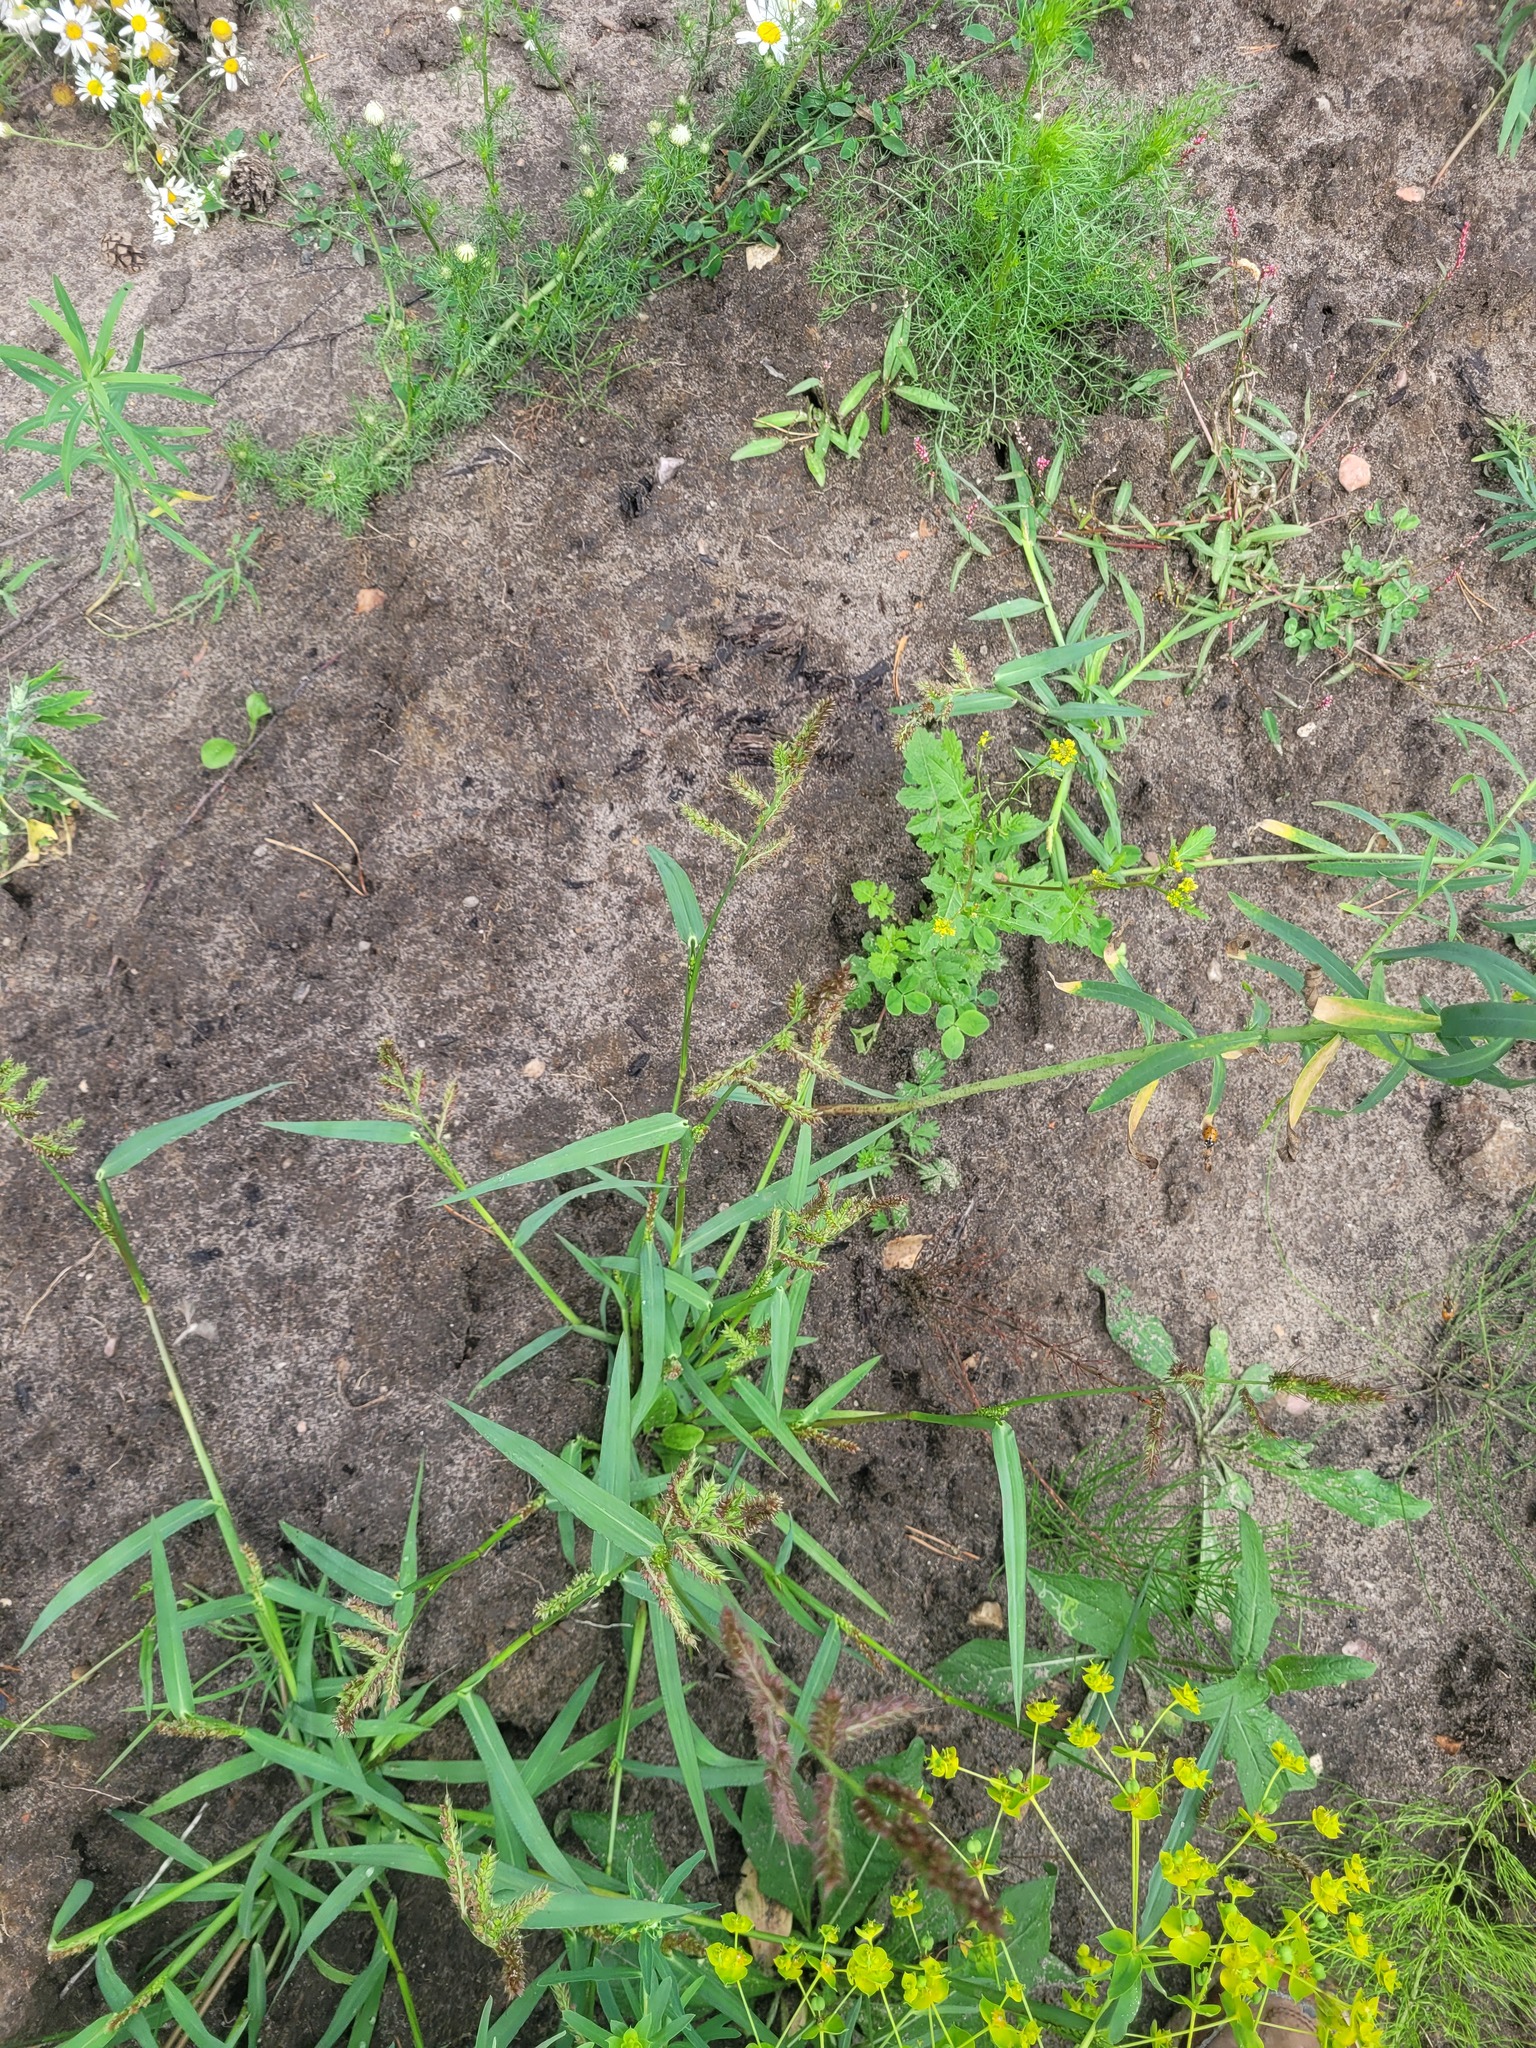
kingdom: Plantae
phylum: Tracheophyta
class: Liliopsida
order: Poales
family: Poaceae
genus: Echinochloa
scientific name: Echinochloa crus-galli
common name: Cockspur
